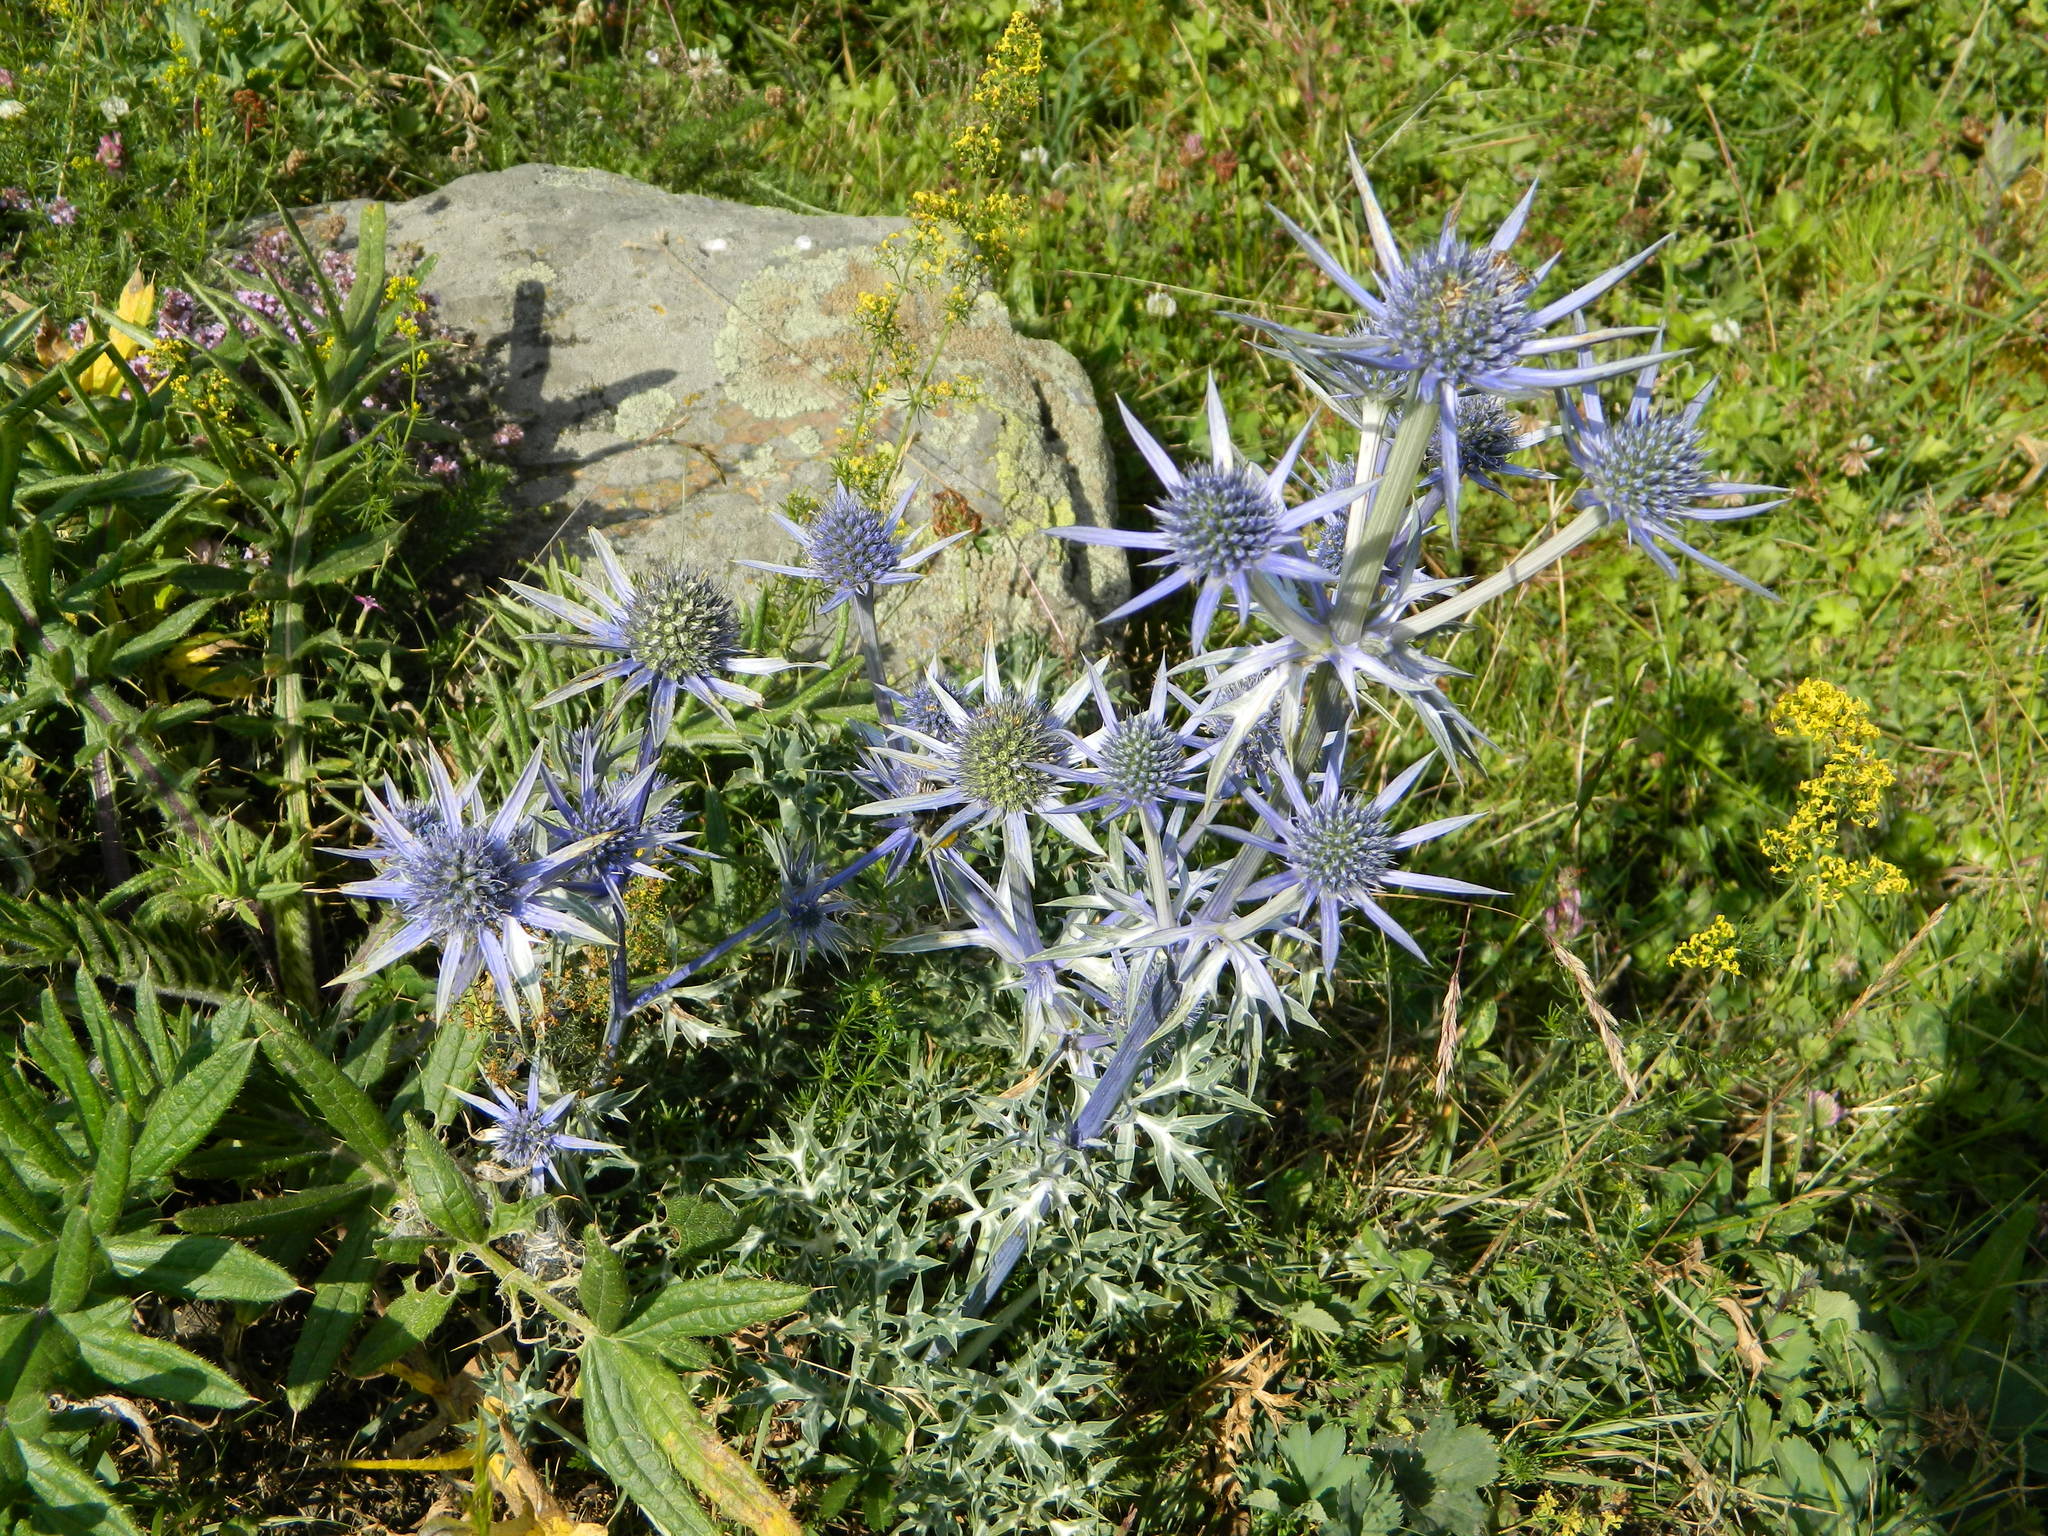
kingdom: Plantae
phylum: Tracheophyta
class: Magnoliopsida
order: Apiales
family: Apiaceae
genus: Eryngium
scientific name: Eryngium bourgatii
